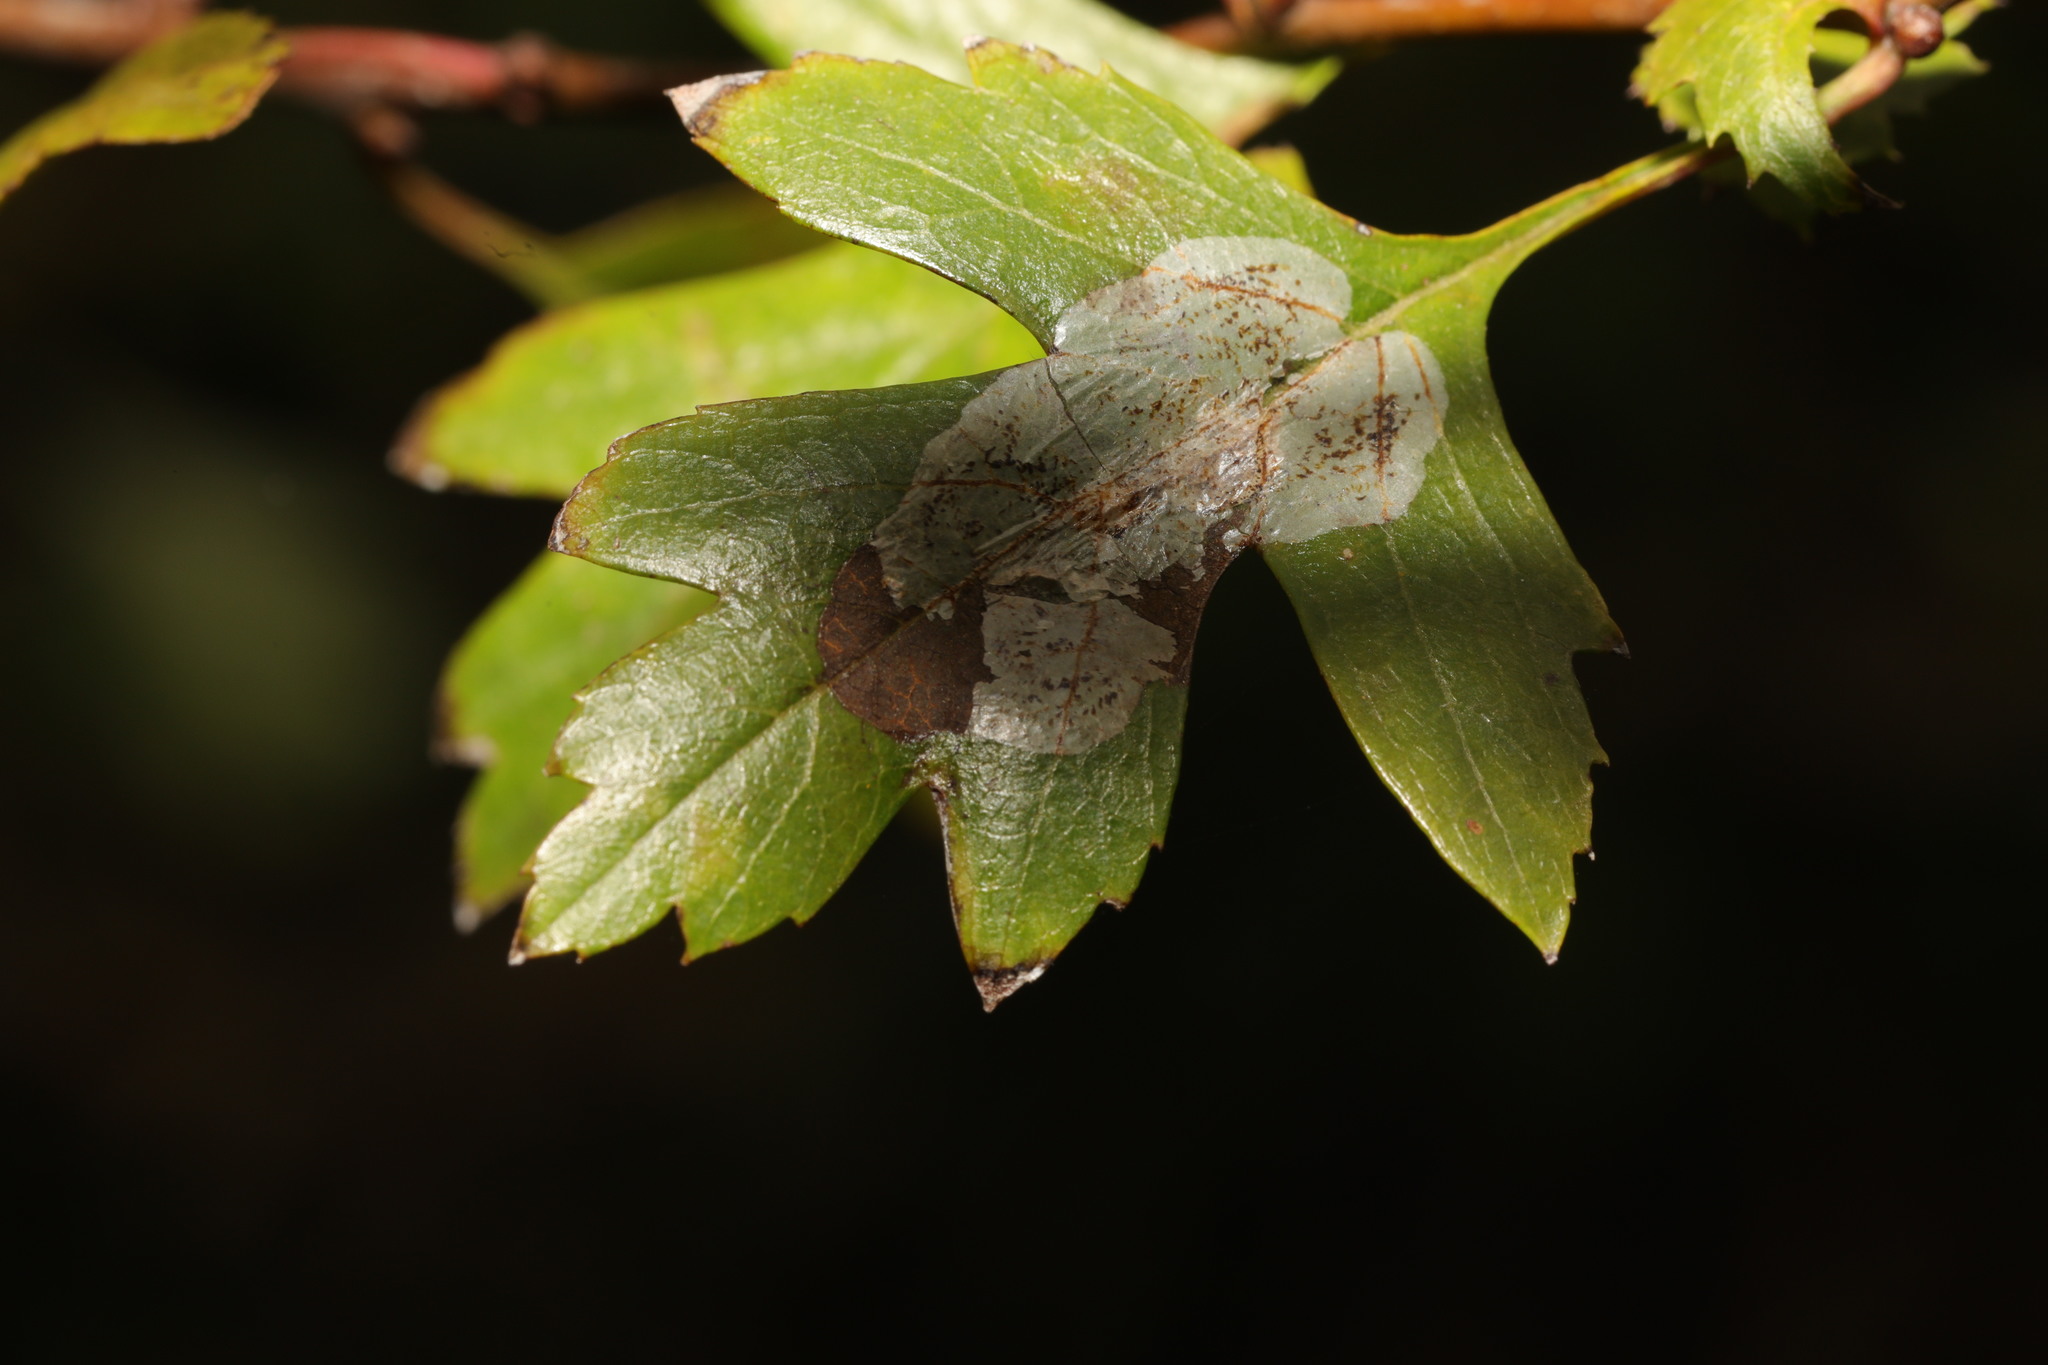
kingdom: Animalia
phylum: Arthropoda
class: Insecta
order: Lepidoptera
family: Gracillariidae
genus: Phyllonorycter
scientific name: Phyllonorycter corylifoliella
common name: Hawthorn midget
